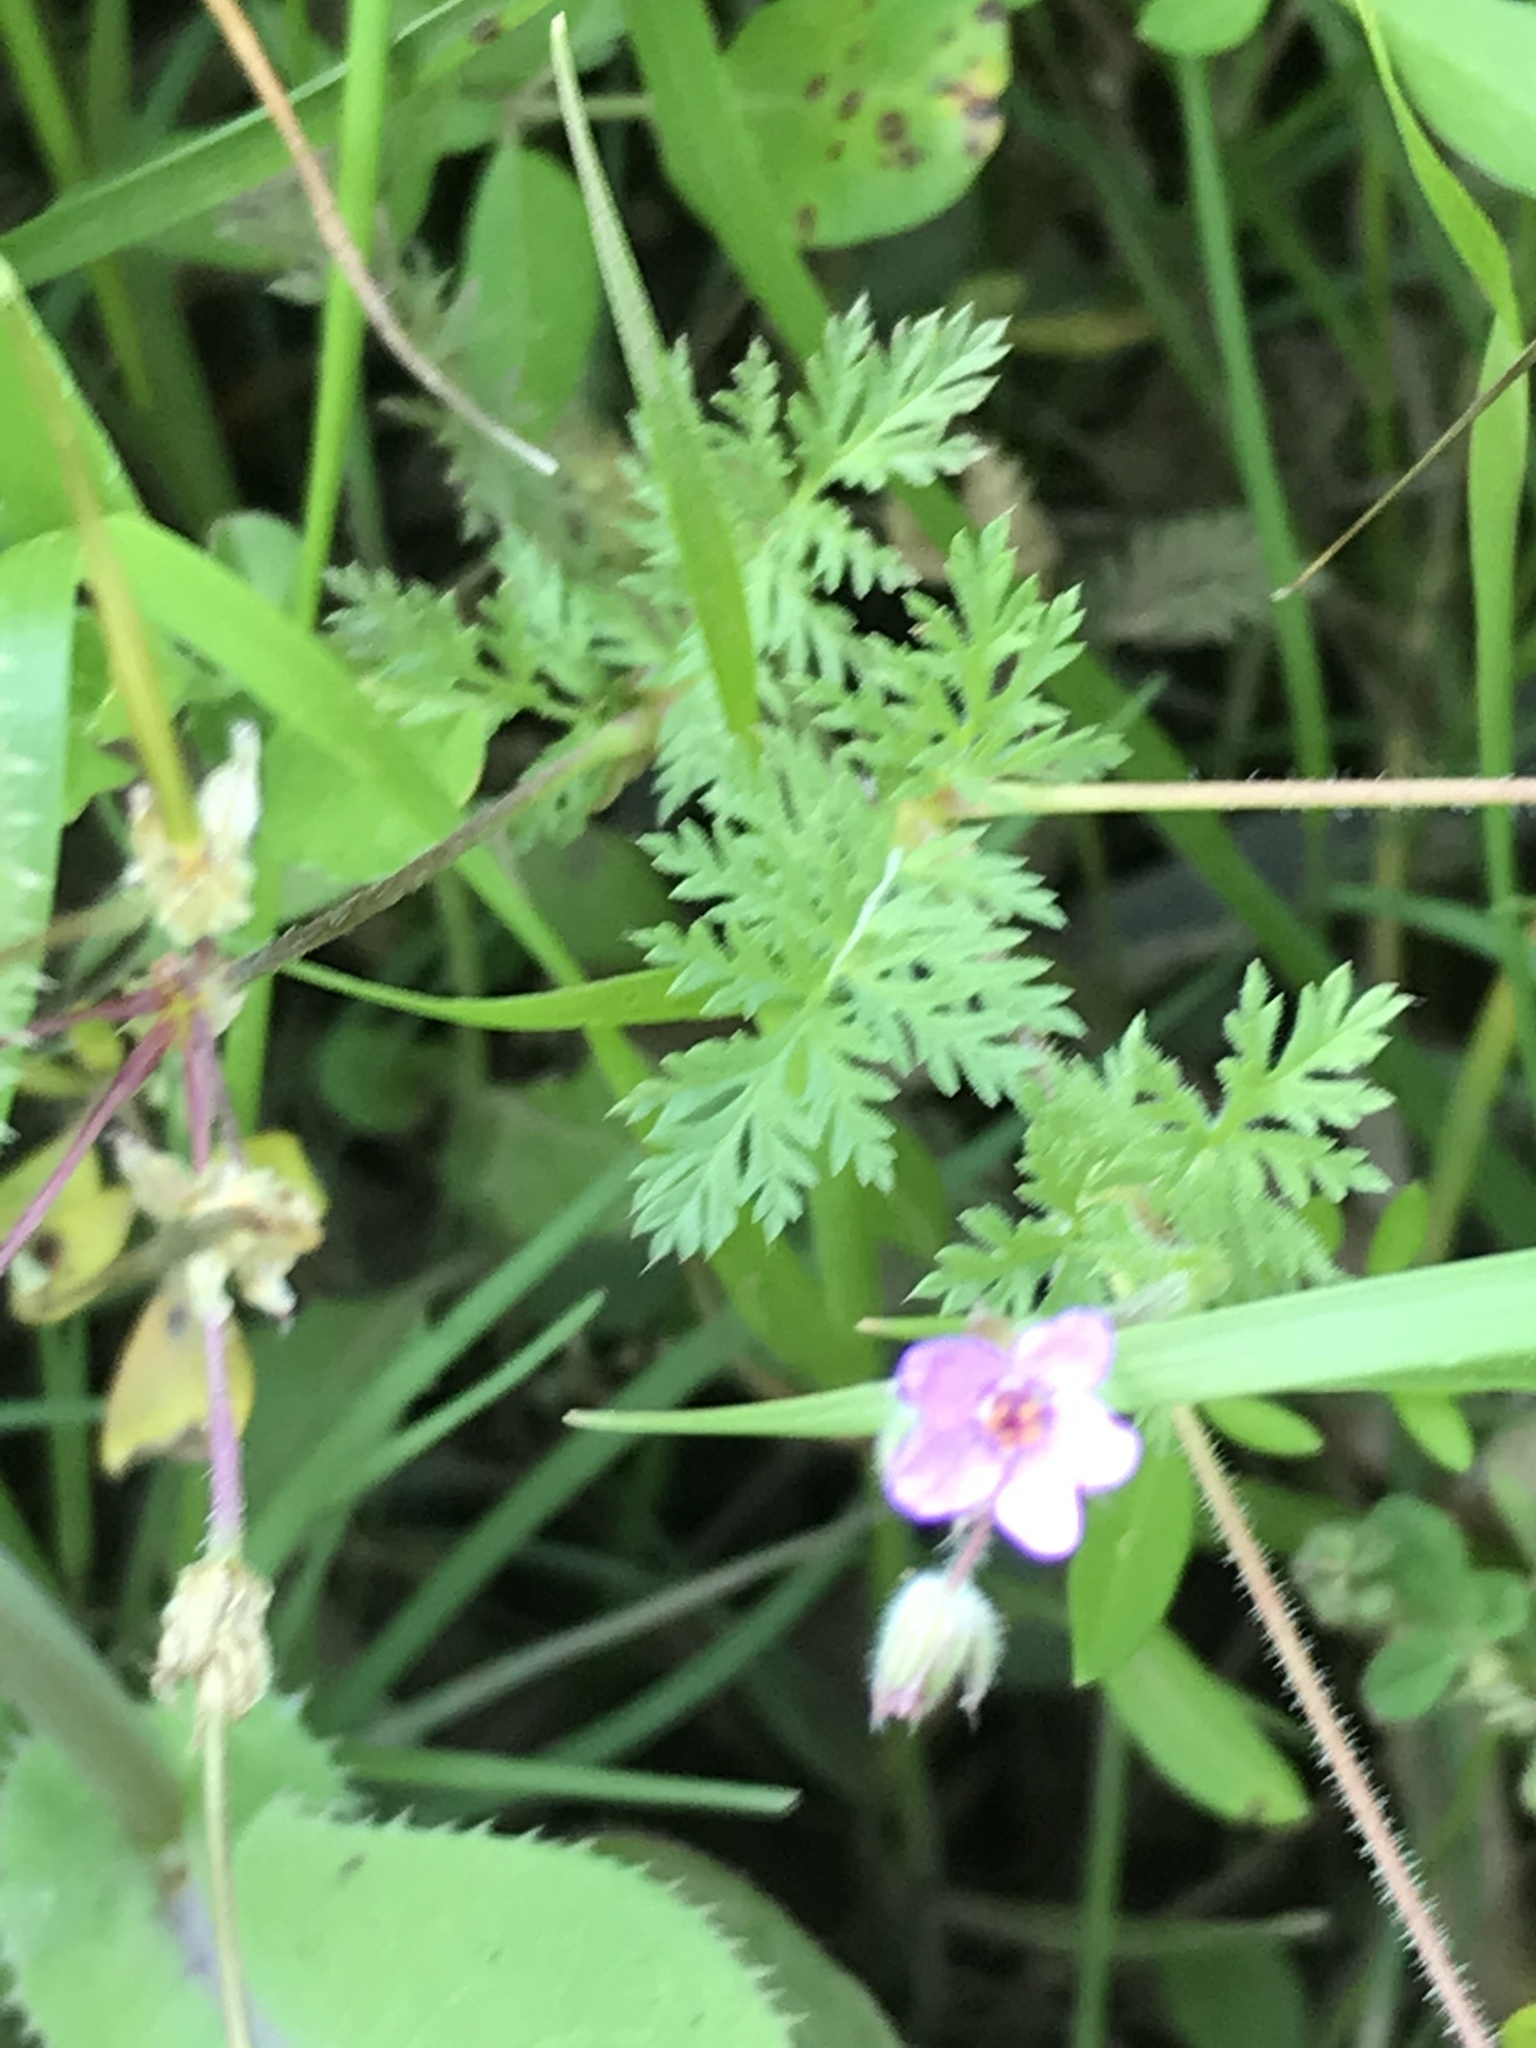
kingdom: Plantae
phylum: Tracheophyta
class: Magnoliopsida
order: Geraniales
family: Geraniaceae
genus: Erodium
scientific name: Erodium cicutarium
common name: Common stork's-bill
